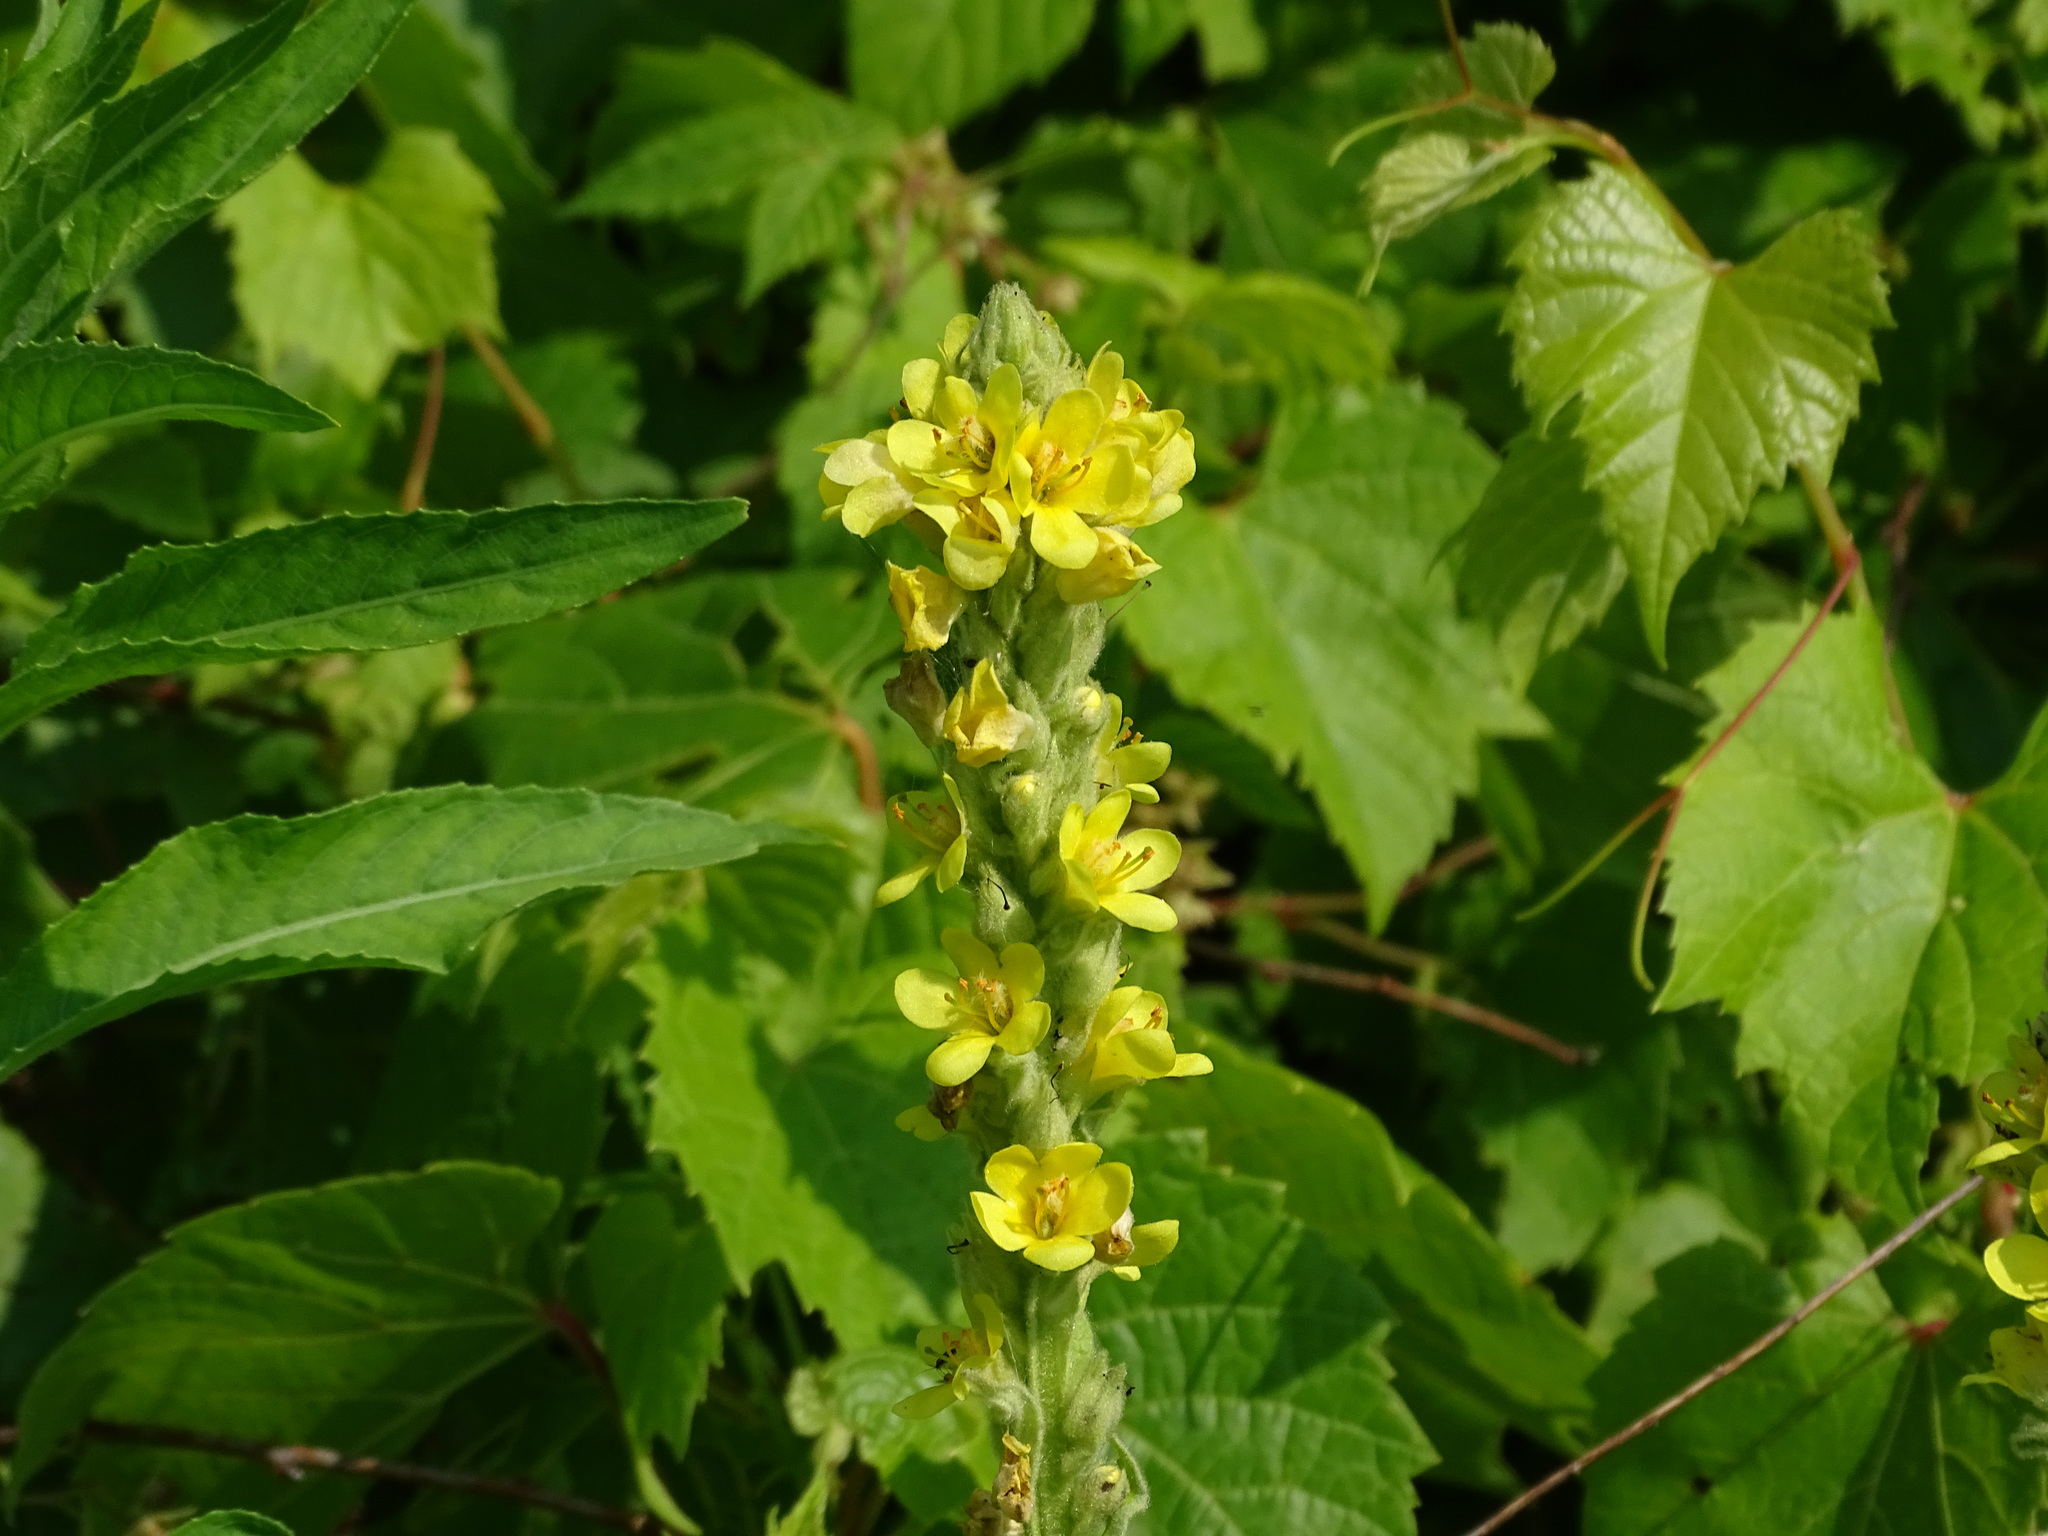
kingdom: Plantae
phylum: Tracheophyta
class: Magnoliopsida
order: Lamiales
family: Scrophulariaceae
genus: Verbascum
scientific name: Verbascum thapsus
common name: Common mullein
